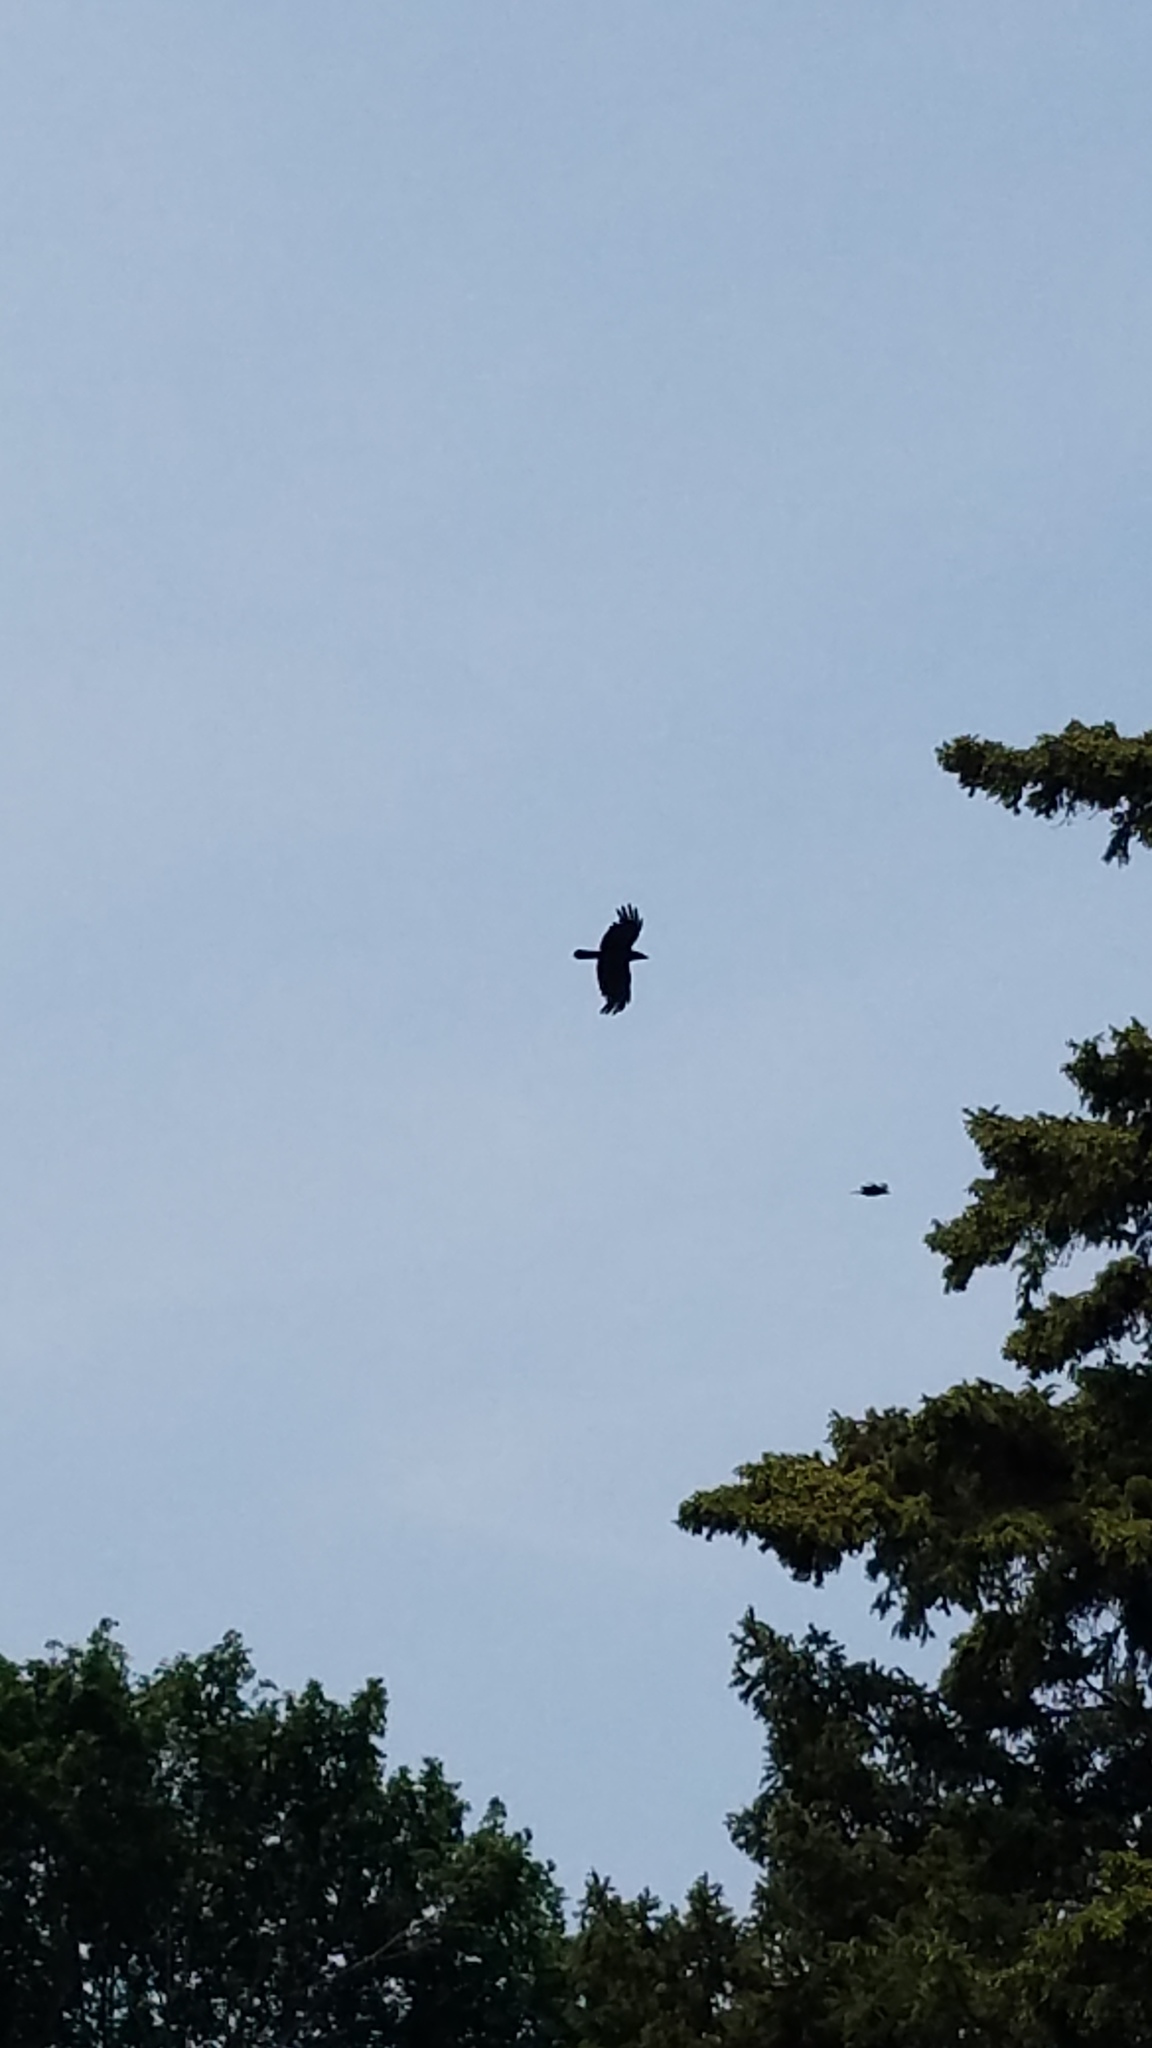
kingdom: Animalia
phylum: Chordata
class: Aves
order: Passeriformes
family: Corvidae
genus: Corvus
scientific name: Corvus brachyrhynchos
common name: American crow
